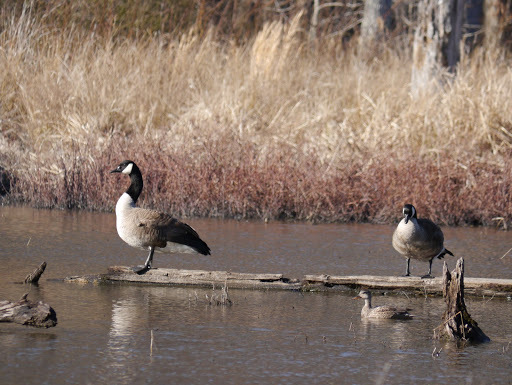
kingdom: Animalia
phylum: Chordata
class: Aves
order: Anseriformes
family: Anatidae
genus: Branta
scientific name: Branta canadensis
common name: Canada goose
